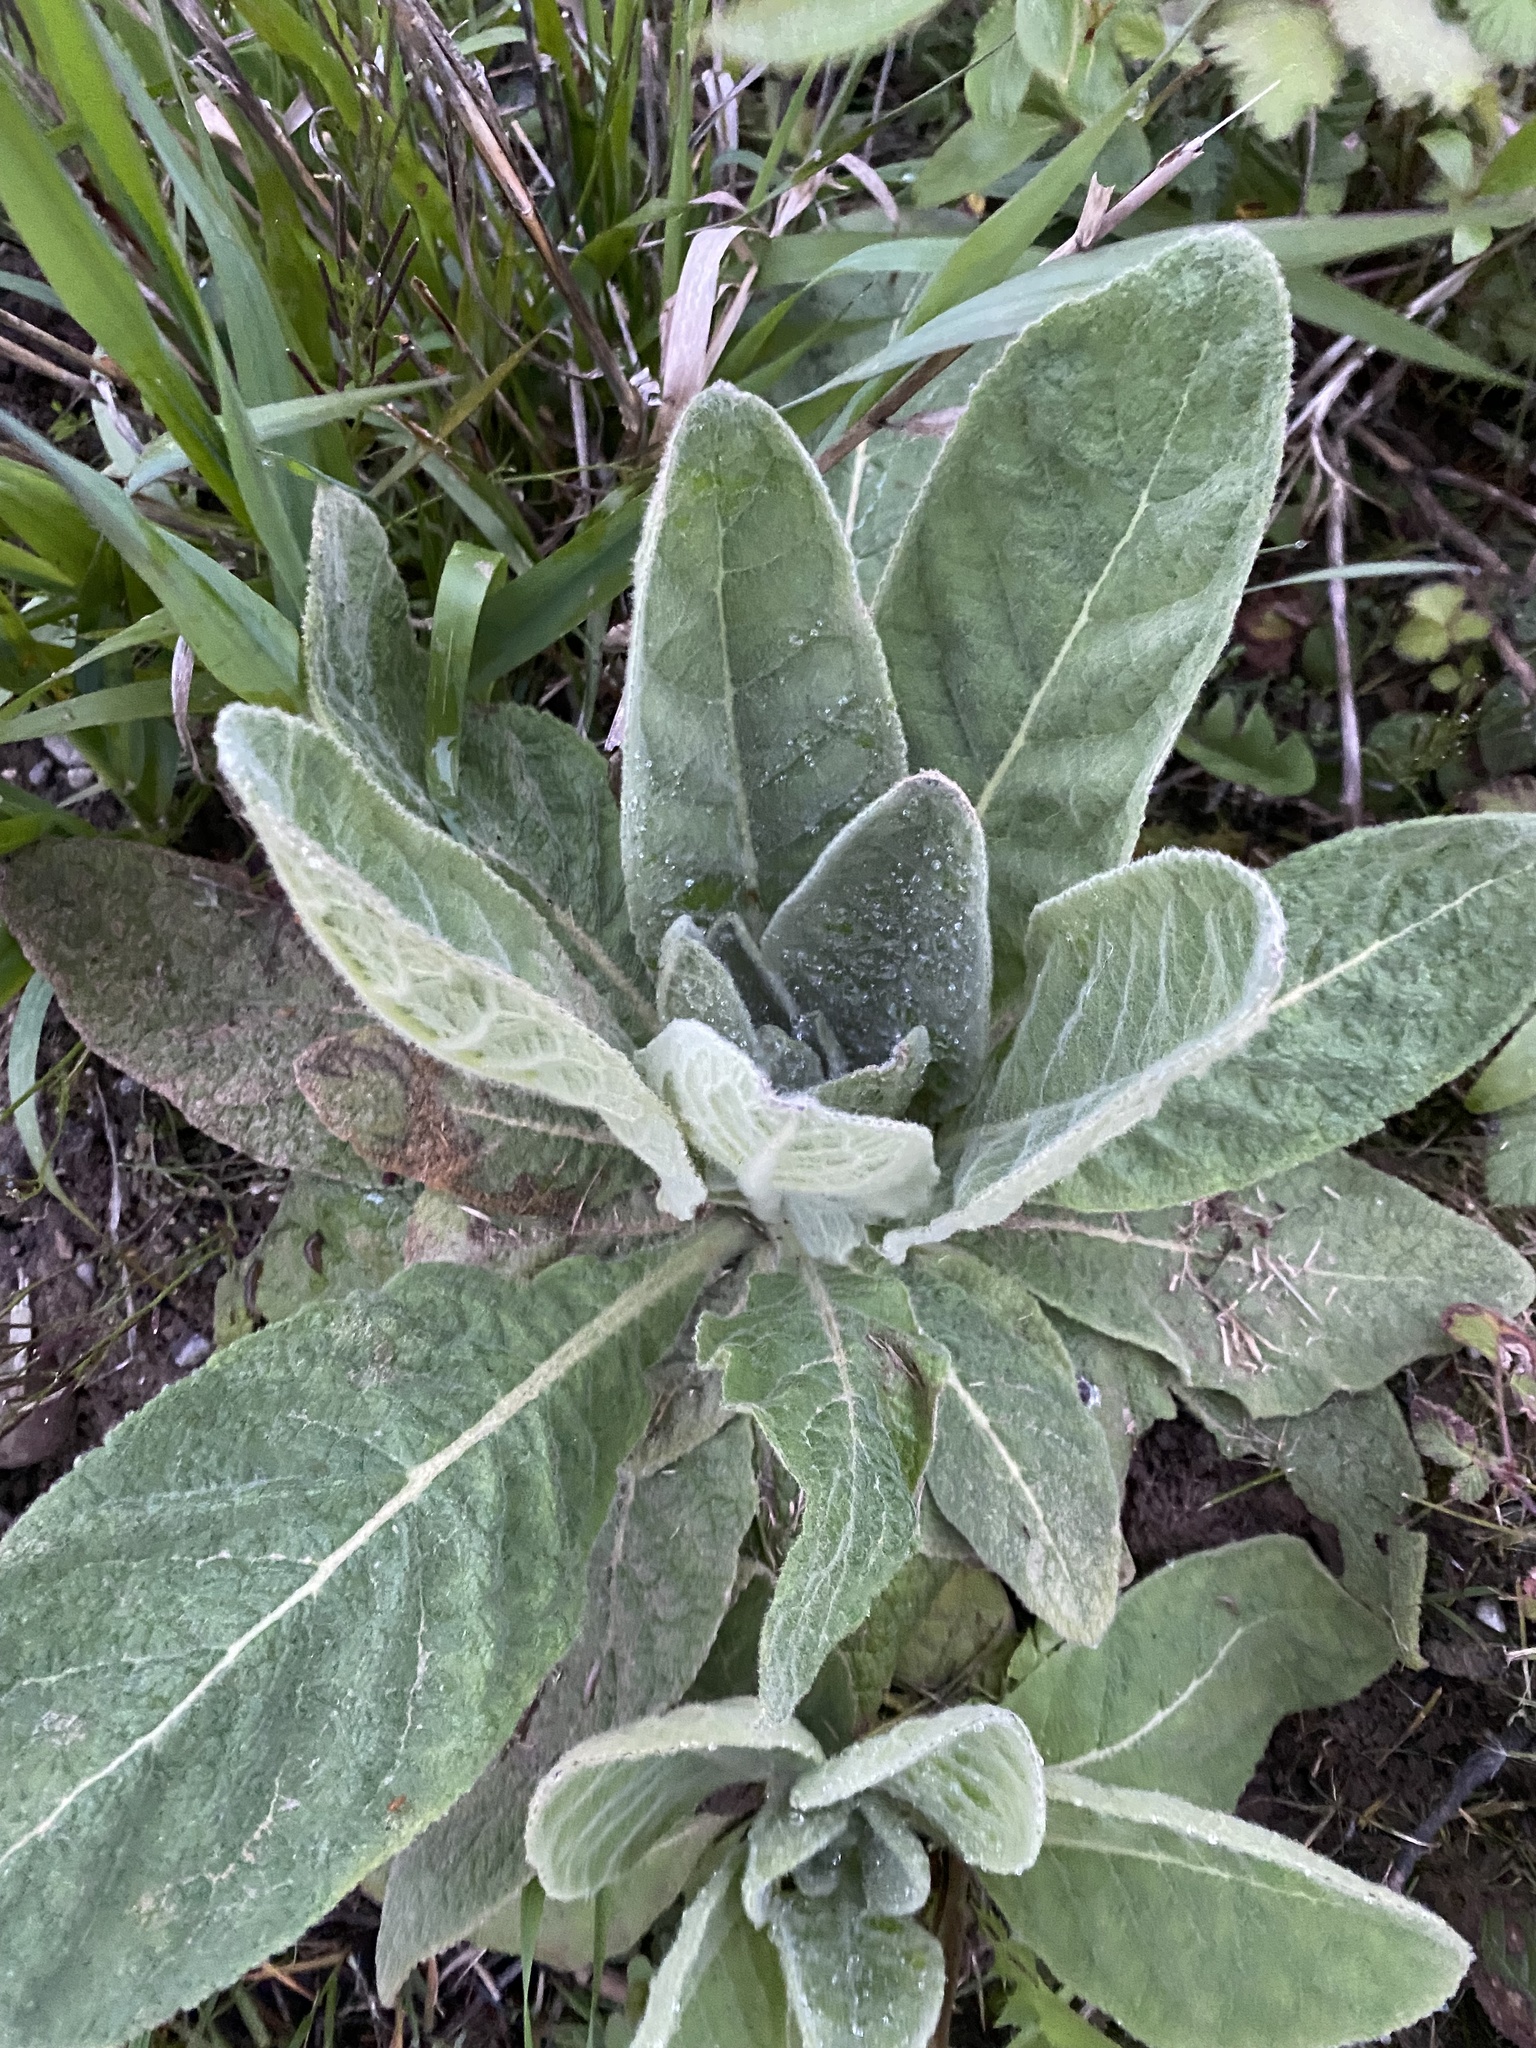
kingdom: Plantae
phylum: Tracheophyta
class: Magnoliopsida
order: Lamiales
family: Scrophulariaceae
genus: Verbascum
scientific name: Verbascum thapsus
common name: Common mullein
